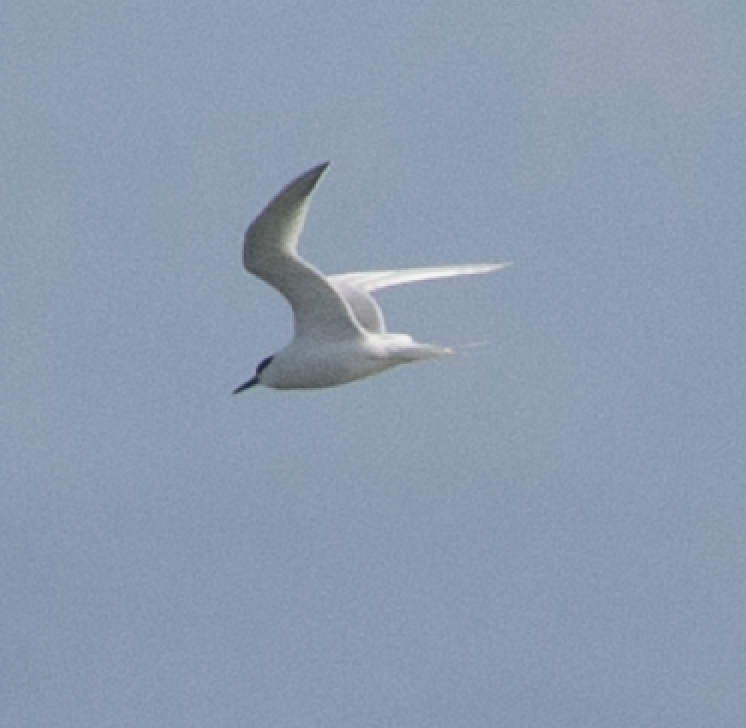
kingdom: Animalia
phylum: Chordata
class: Aves
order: Charadriiformes
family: Laridae
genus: Thalasseus
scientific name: Thalasseus sandvicensis
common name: Sandwich tern
